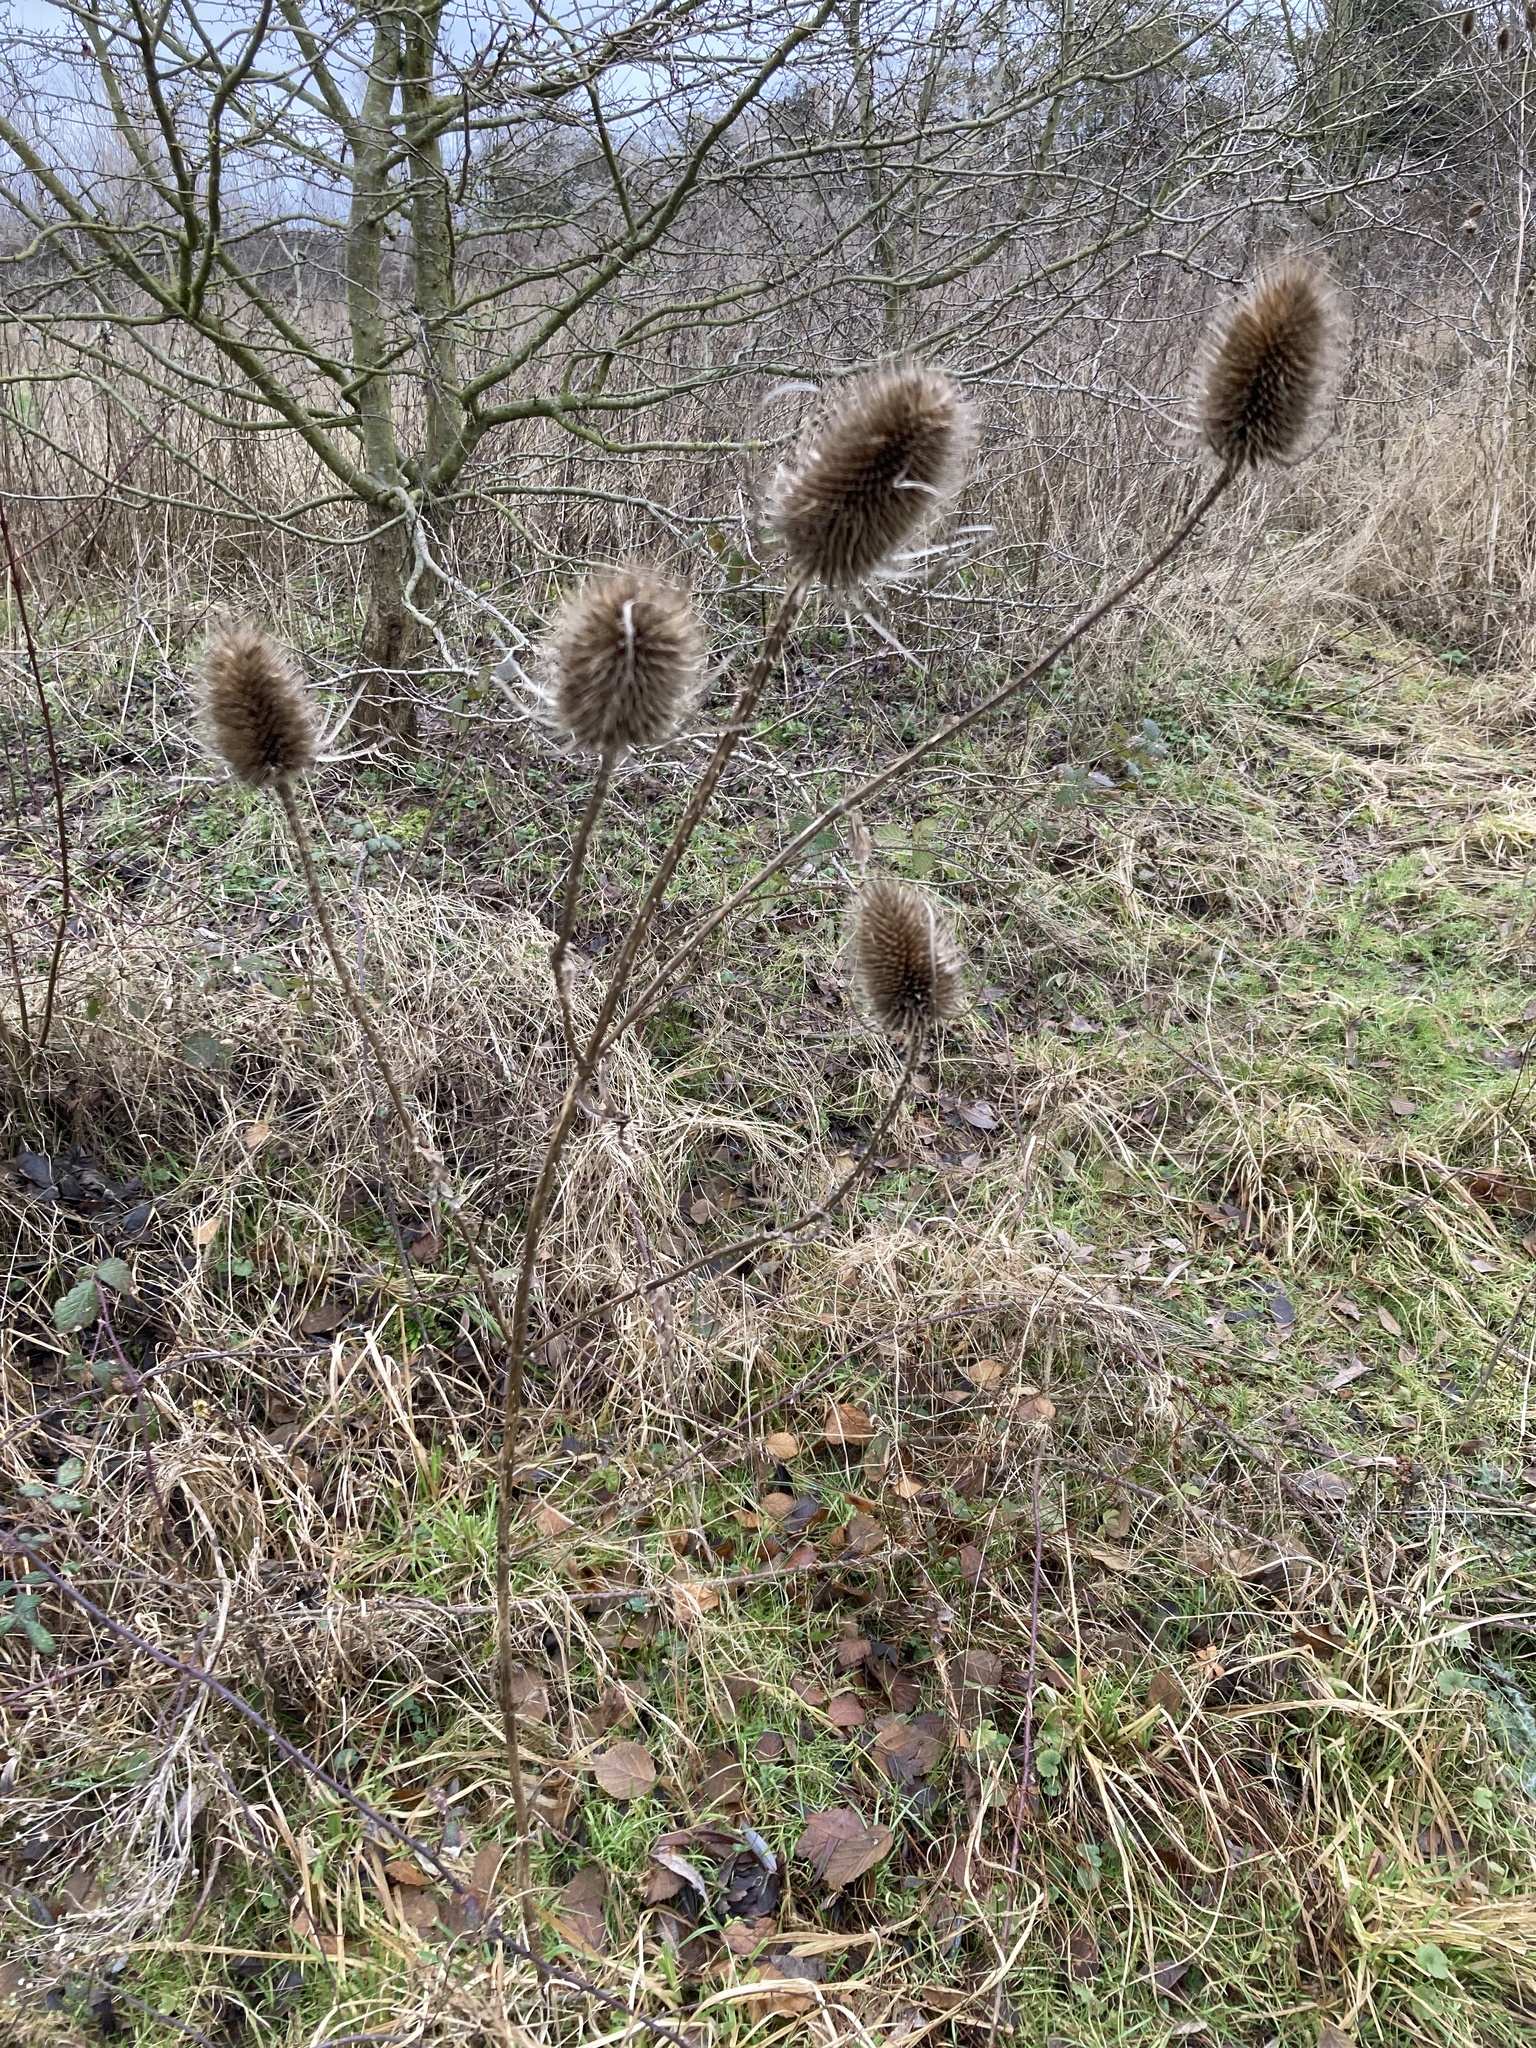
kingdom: Plantae
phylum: Tracheophyta
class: Magnoliopsida
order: Dipsacales
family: Caprifoliaceae
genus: Dipsacus
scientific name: Dipsacus fullonum
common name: Teasel
